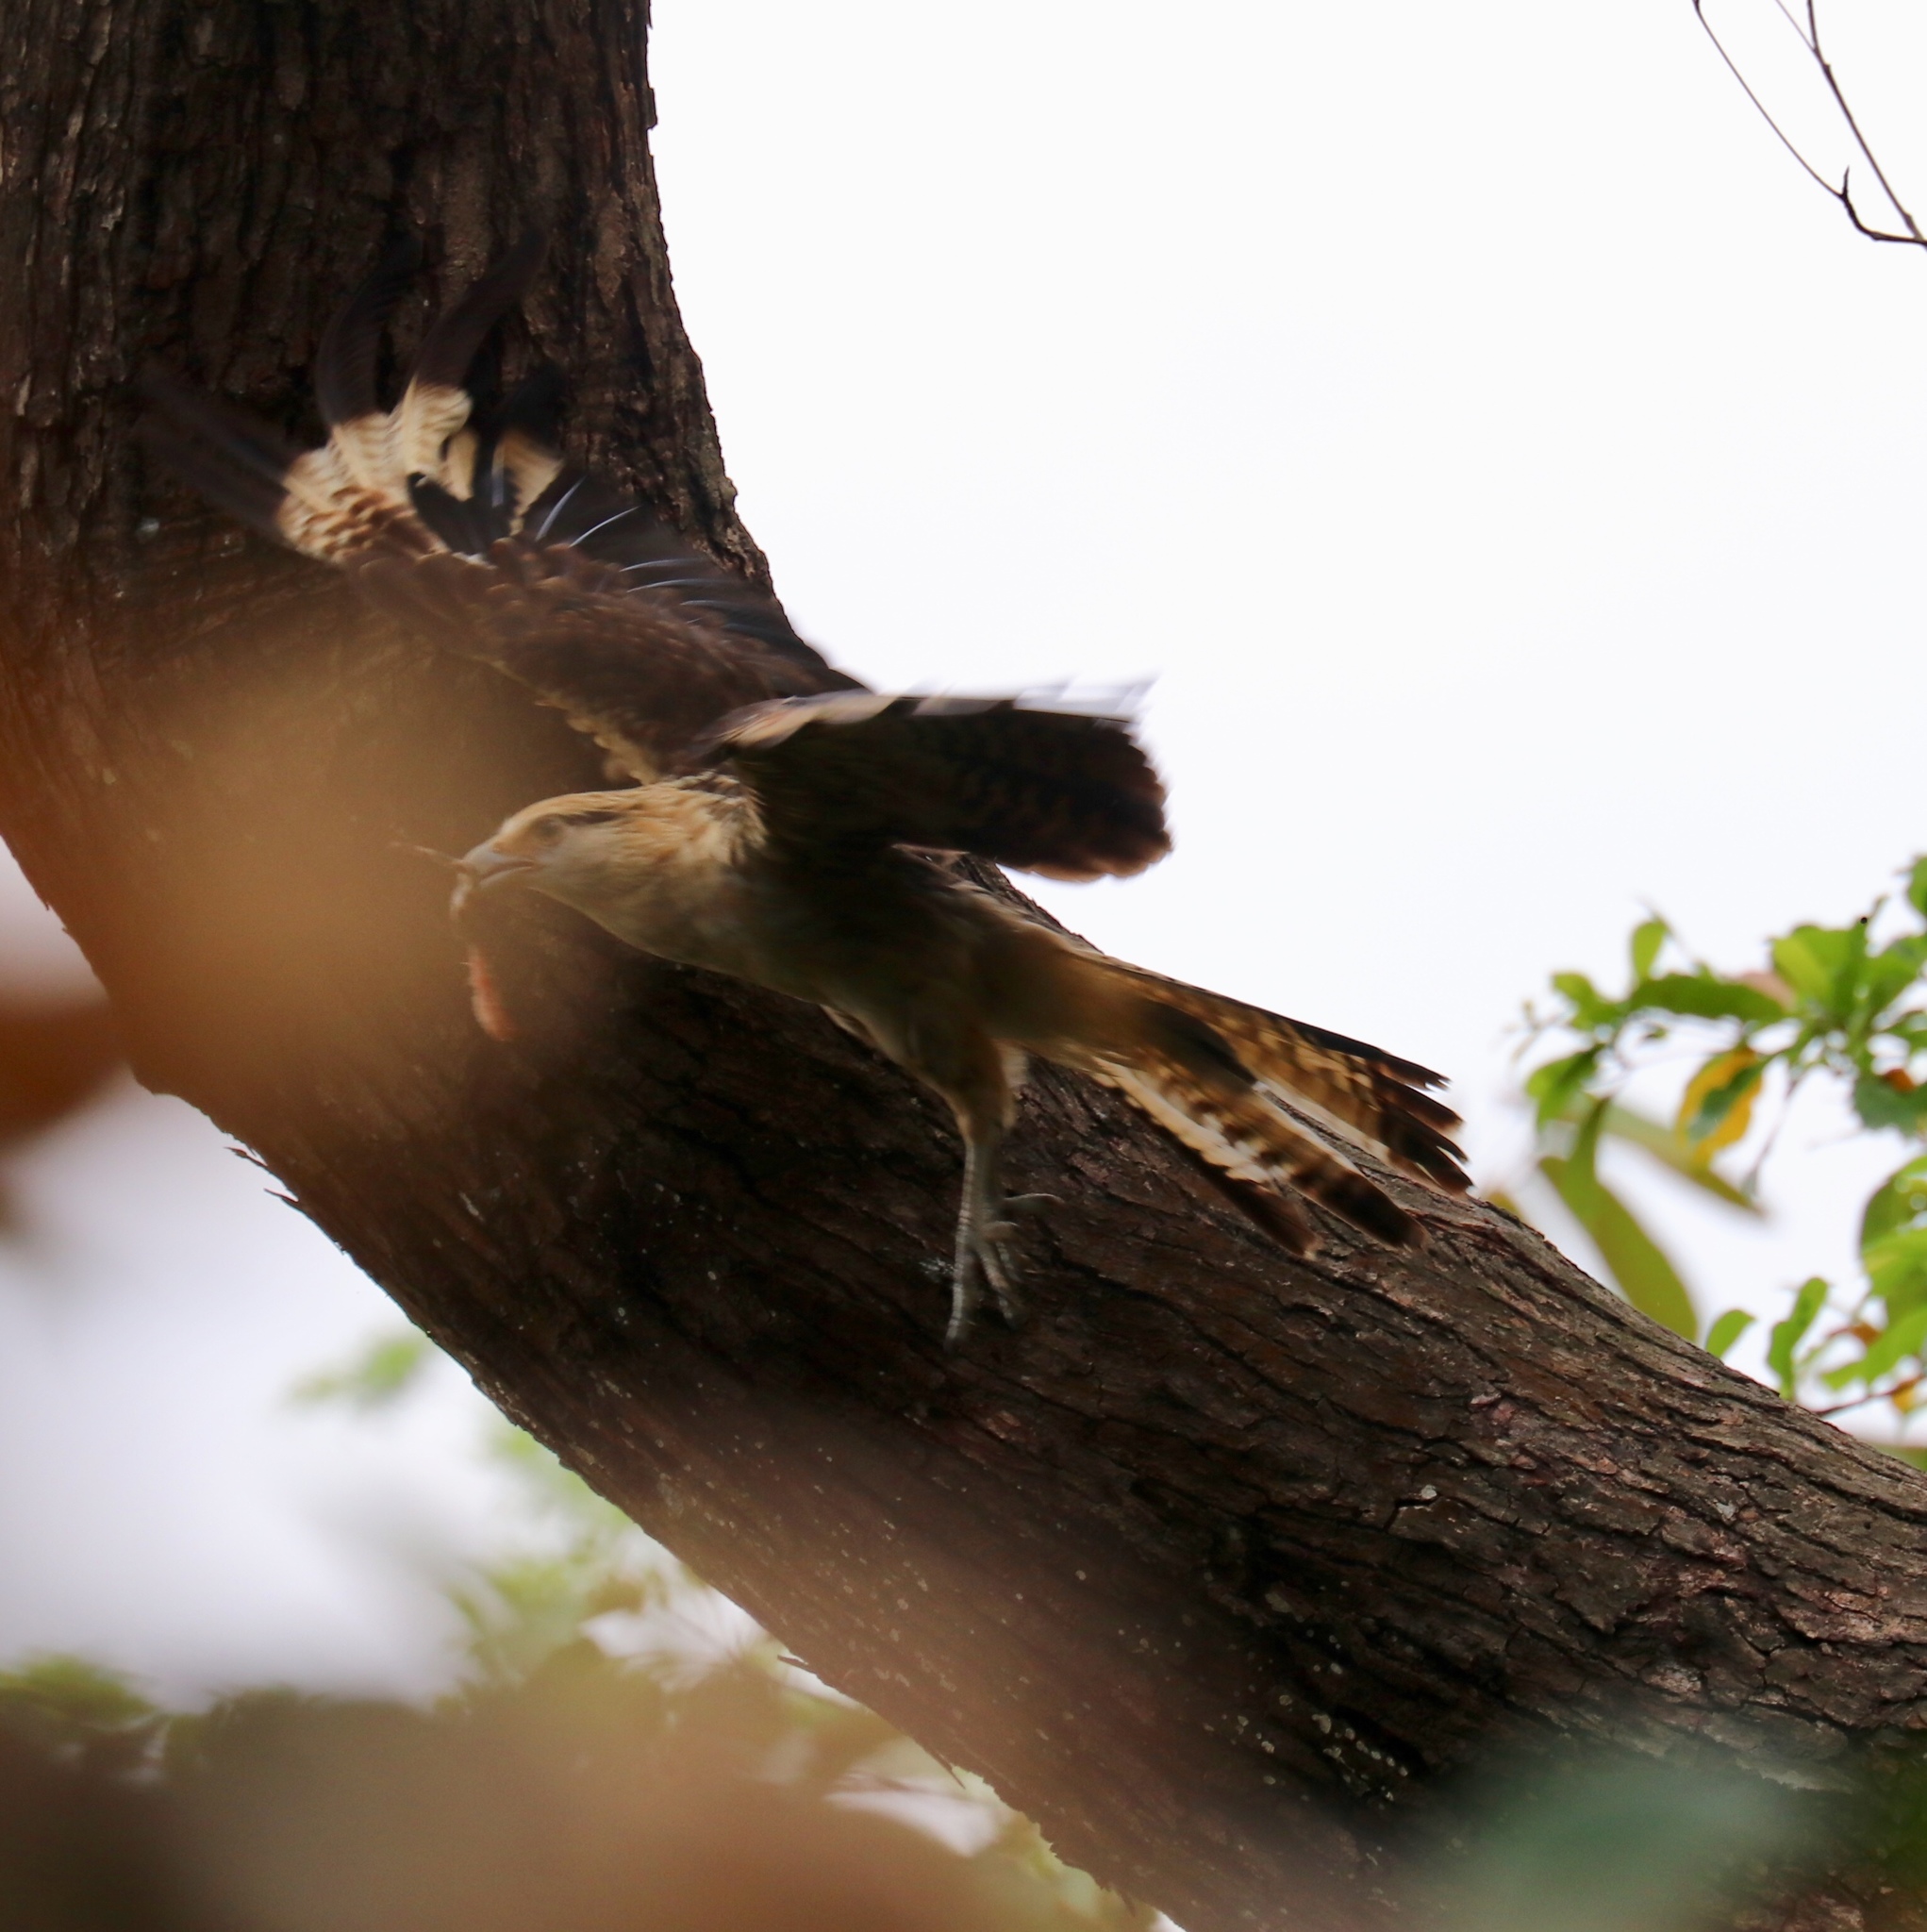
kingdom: Animalia
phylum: Chordata
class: Aves
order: Falconiformes
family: Falconidae
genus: Daptrius
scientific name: Daptrius
